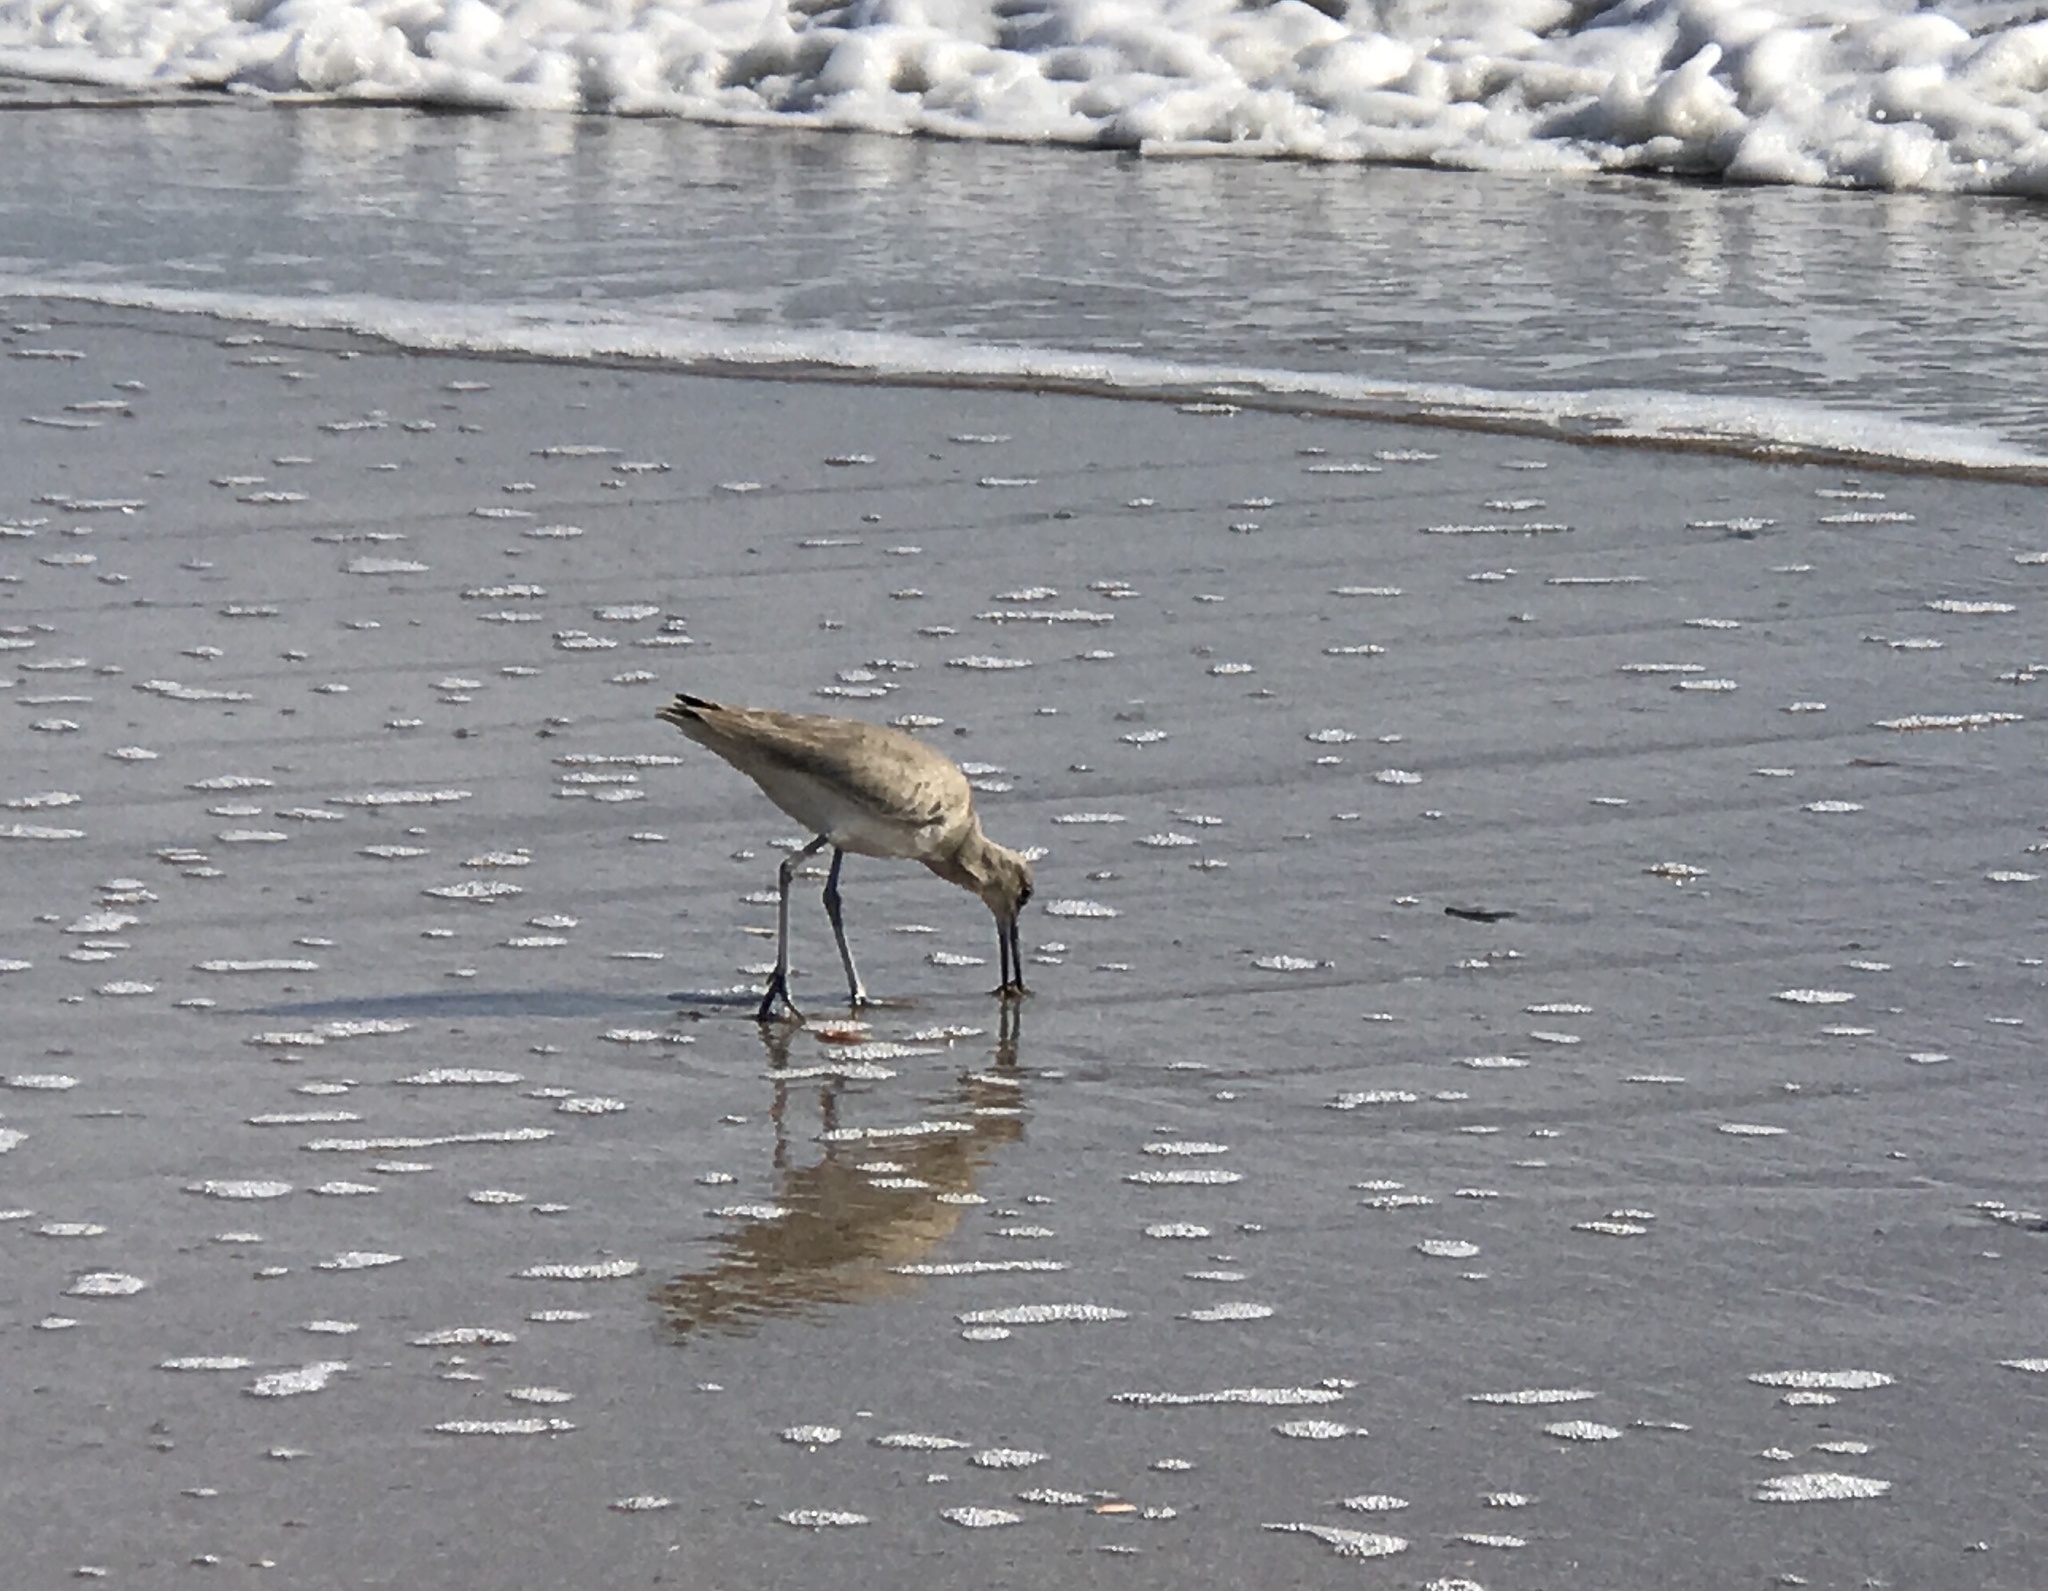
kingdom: Animalia
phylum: Chordata
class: Aves
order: Charadriiformes
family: Scolopacidae
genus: Tringa
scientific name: Tringa semipalmata
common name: Willet
